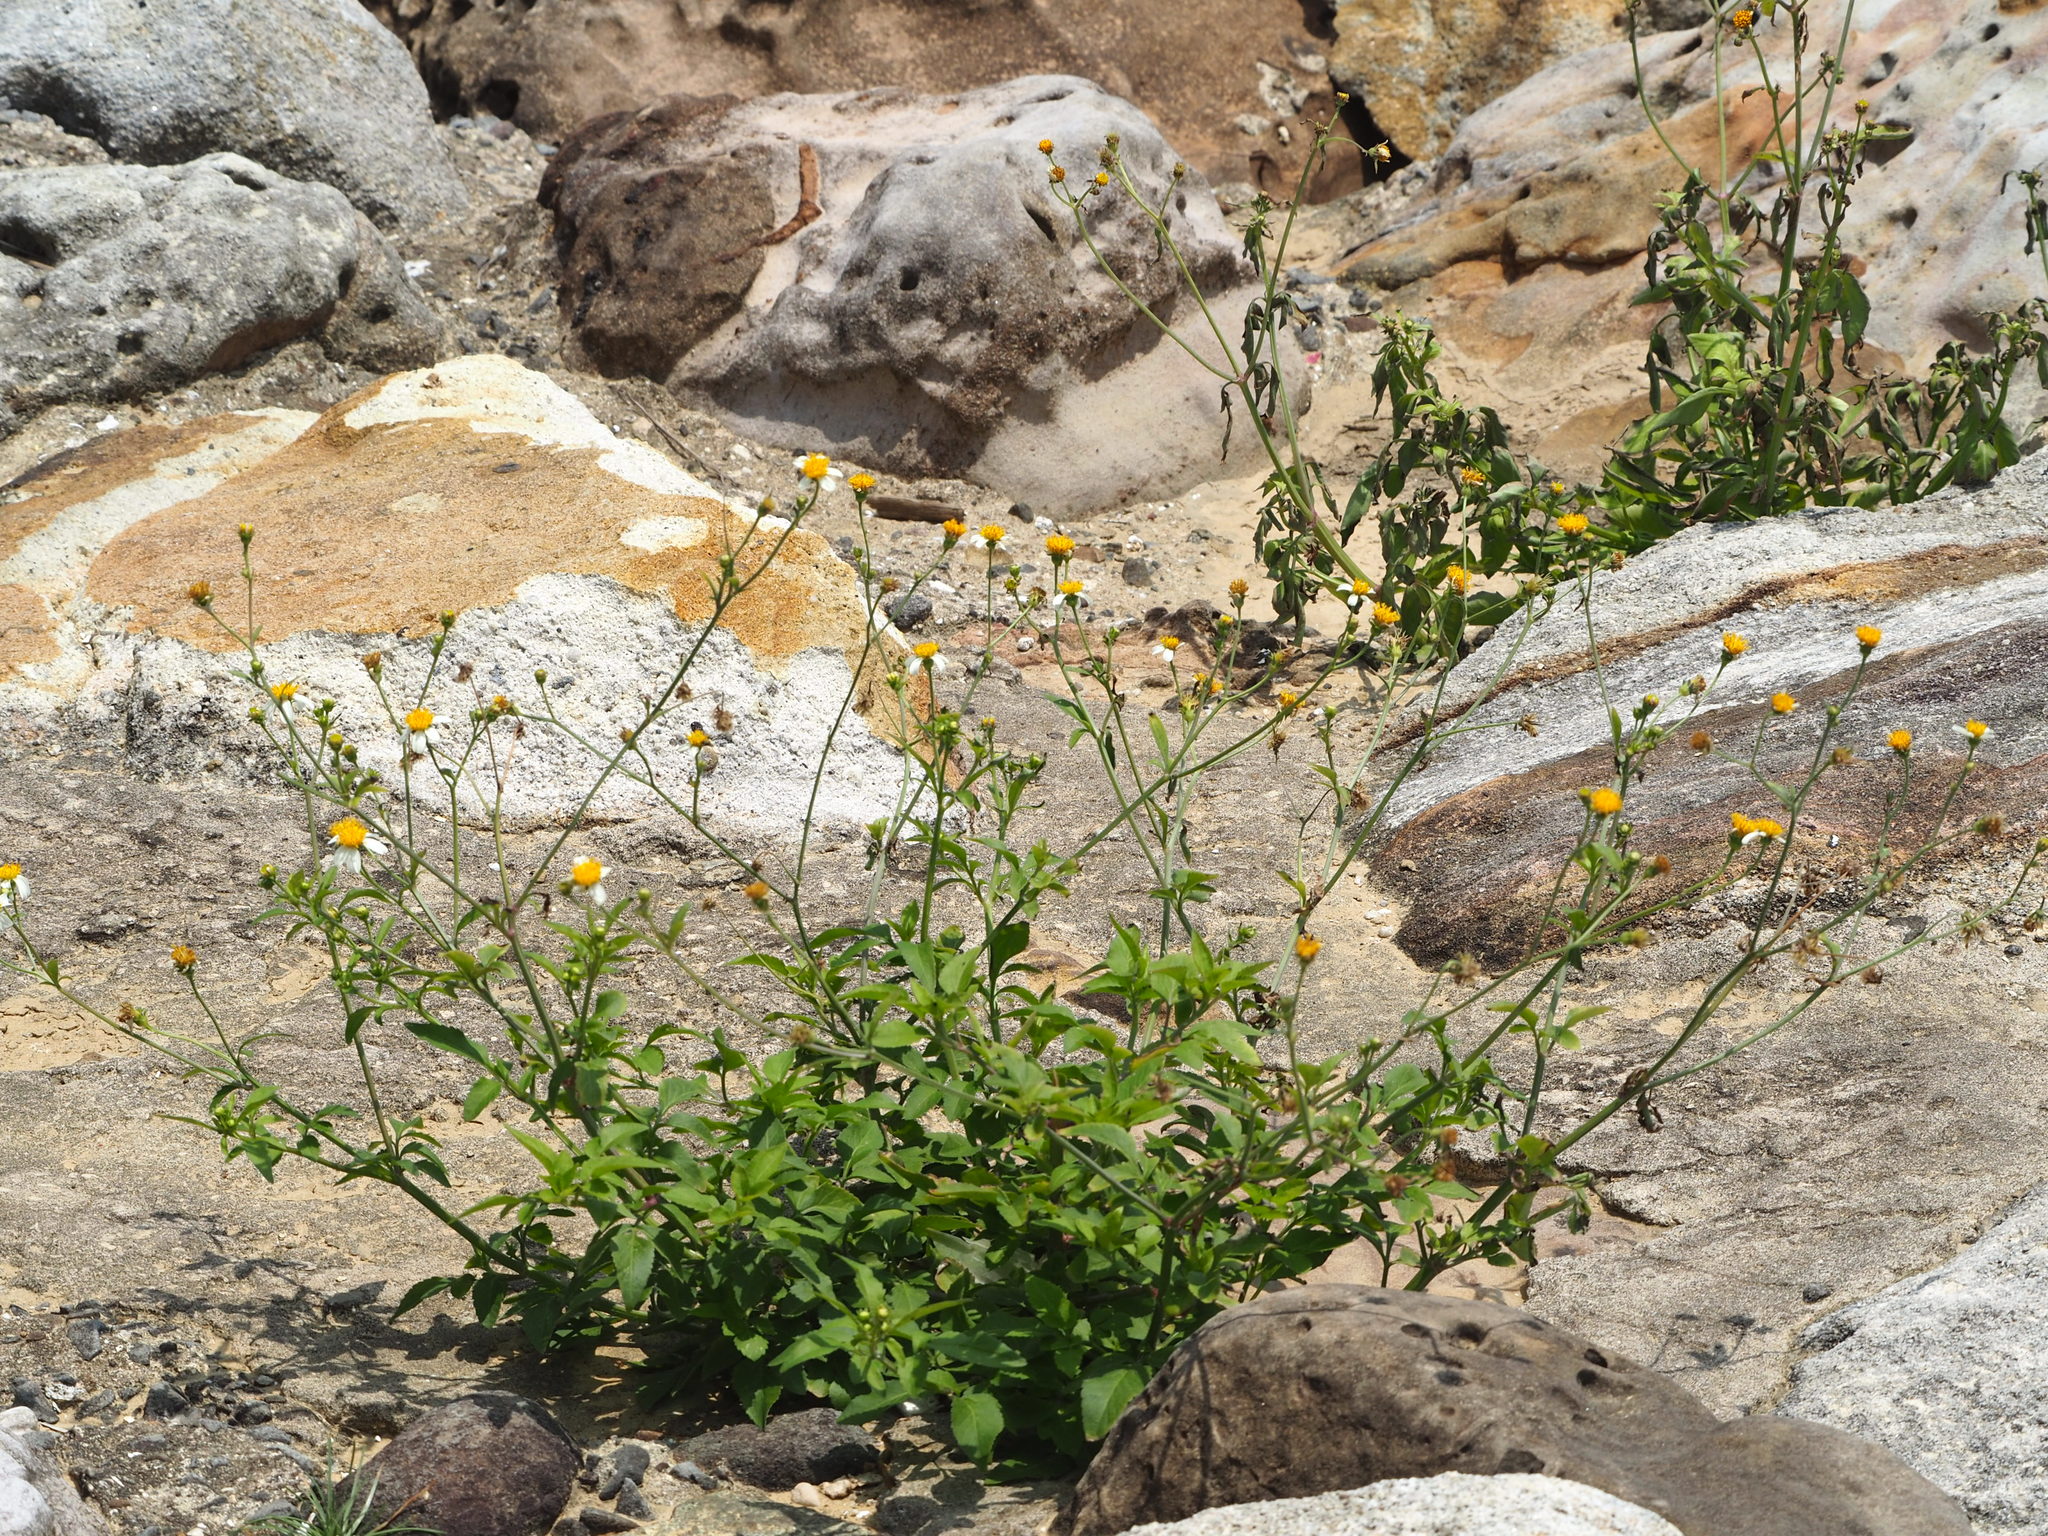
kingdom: Plantae
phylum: Tracheophyta
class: Magnoliopsida
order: Asterales
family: Asteraceae
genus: Bidens
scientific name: Bidens alba
